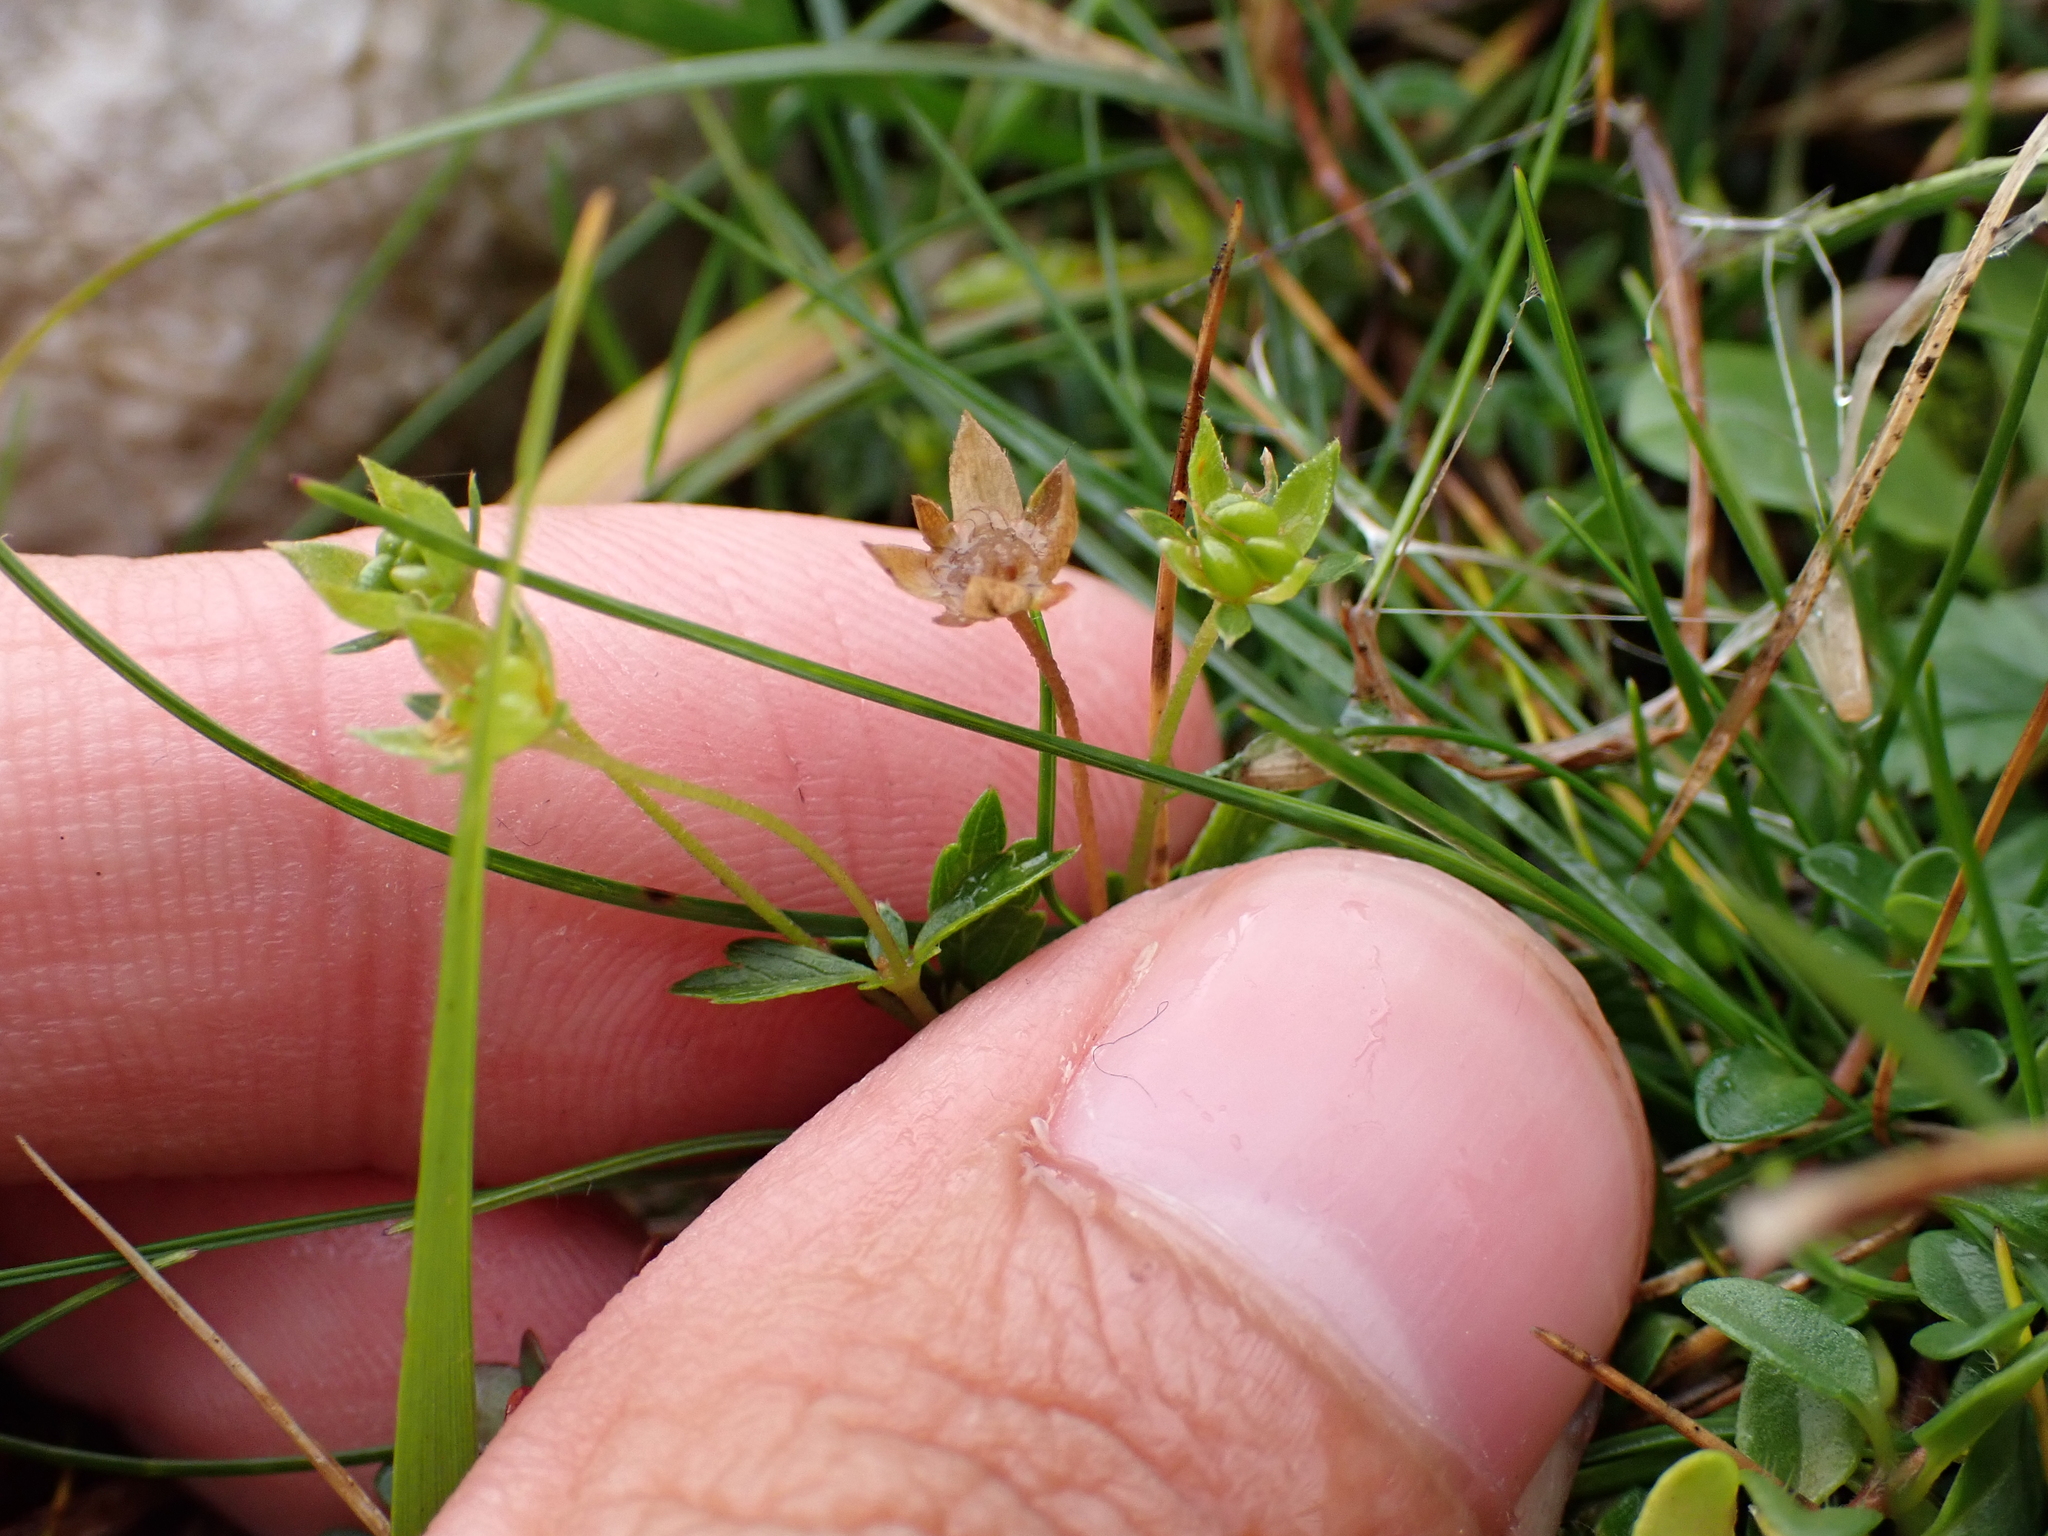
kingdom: Plantae
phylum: Tracheophyta
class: Magnoliopsida
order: Rosales
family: Rosaceae
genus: Potentilla
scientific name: Potentilla erecta
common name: Tormentil
